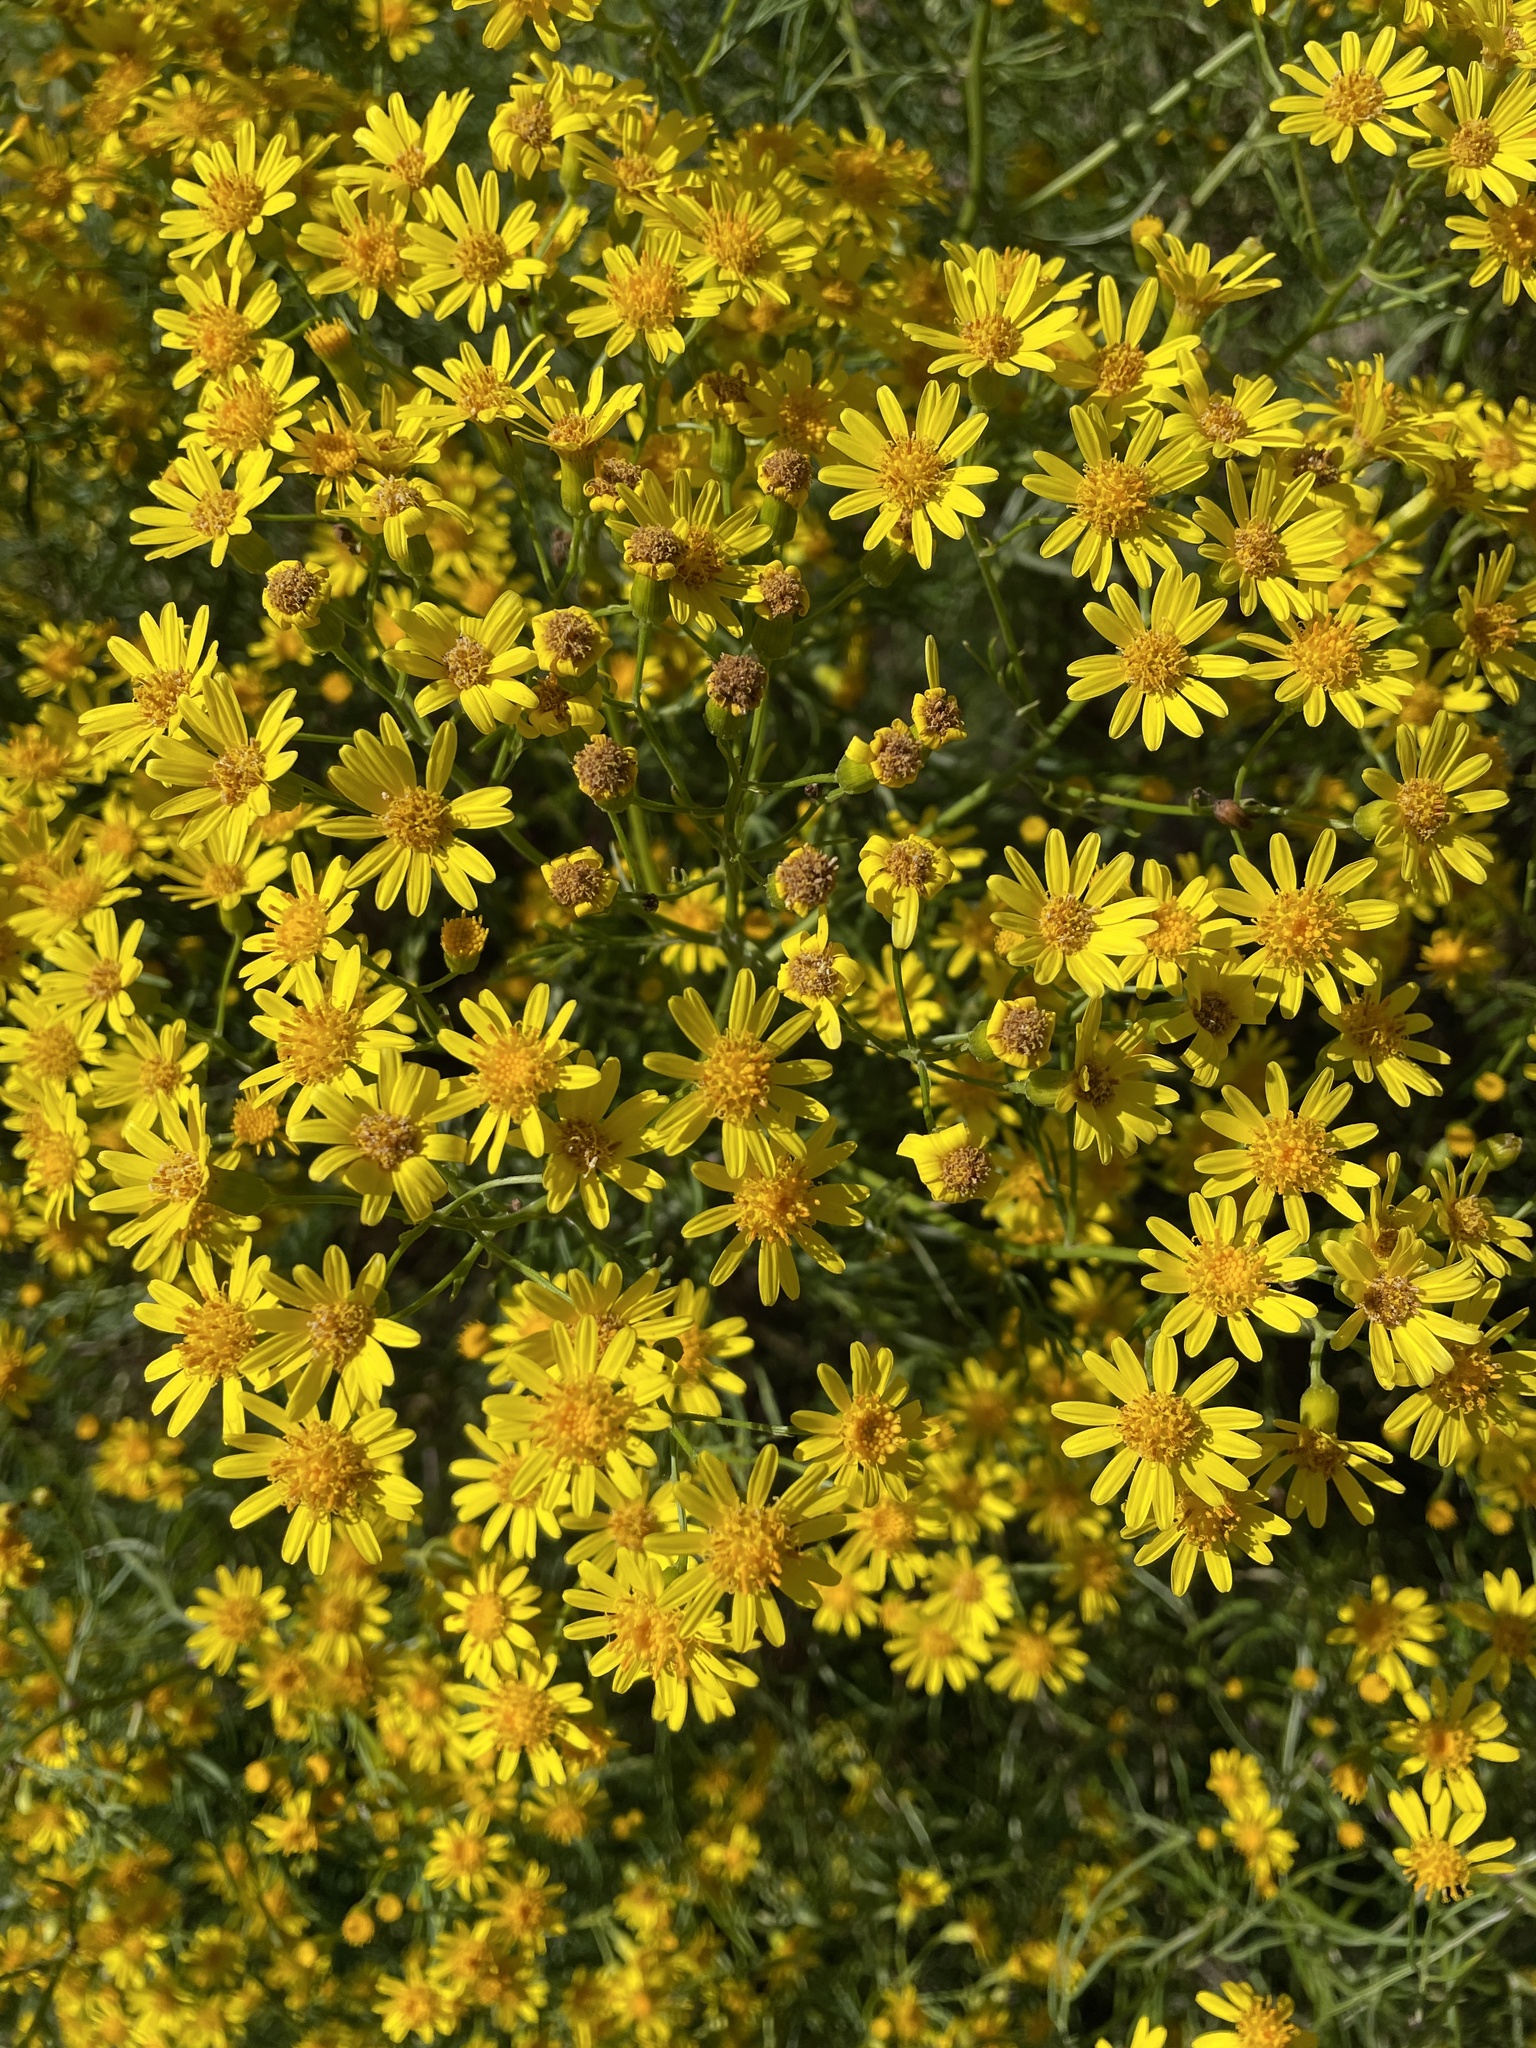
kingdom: Plantae
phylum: Tracheophyta
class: Magnoliopsida
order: Asterales
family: Asteraceae
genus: Senecio
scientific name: Senecio brasiliensis
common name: Hemp-leaf ragwort
